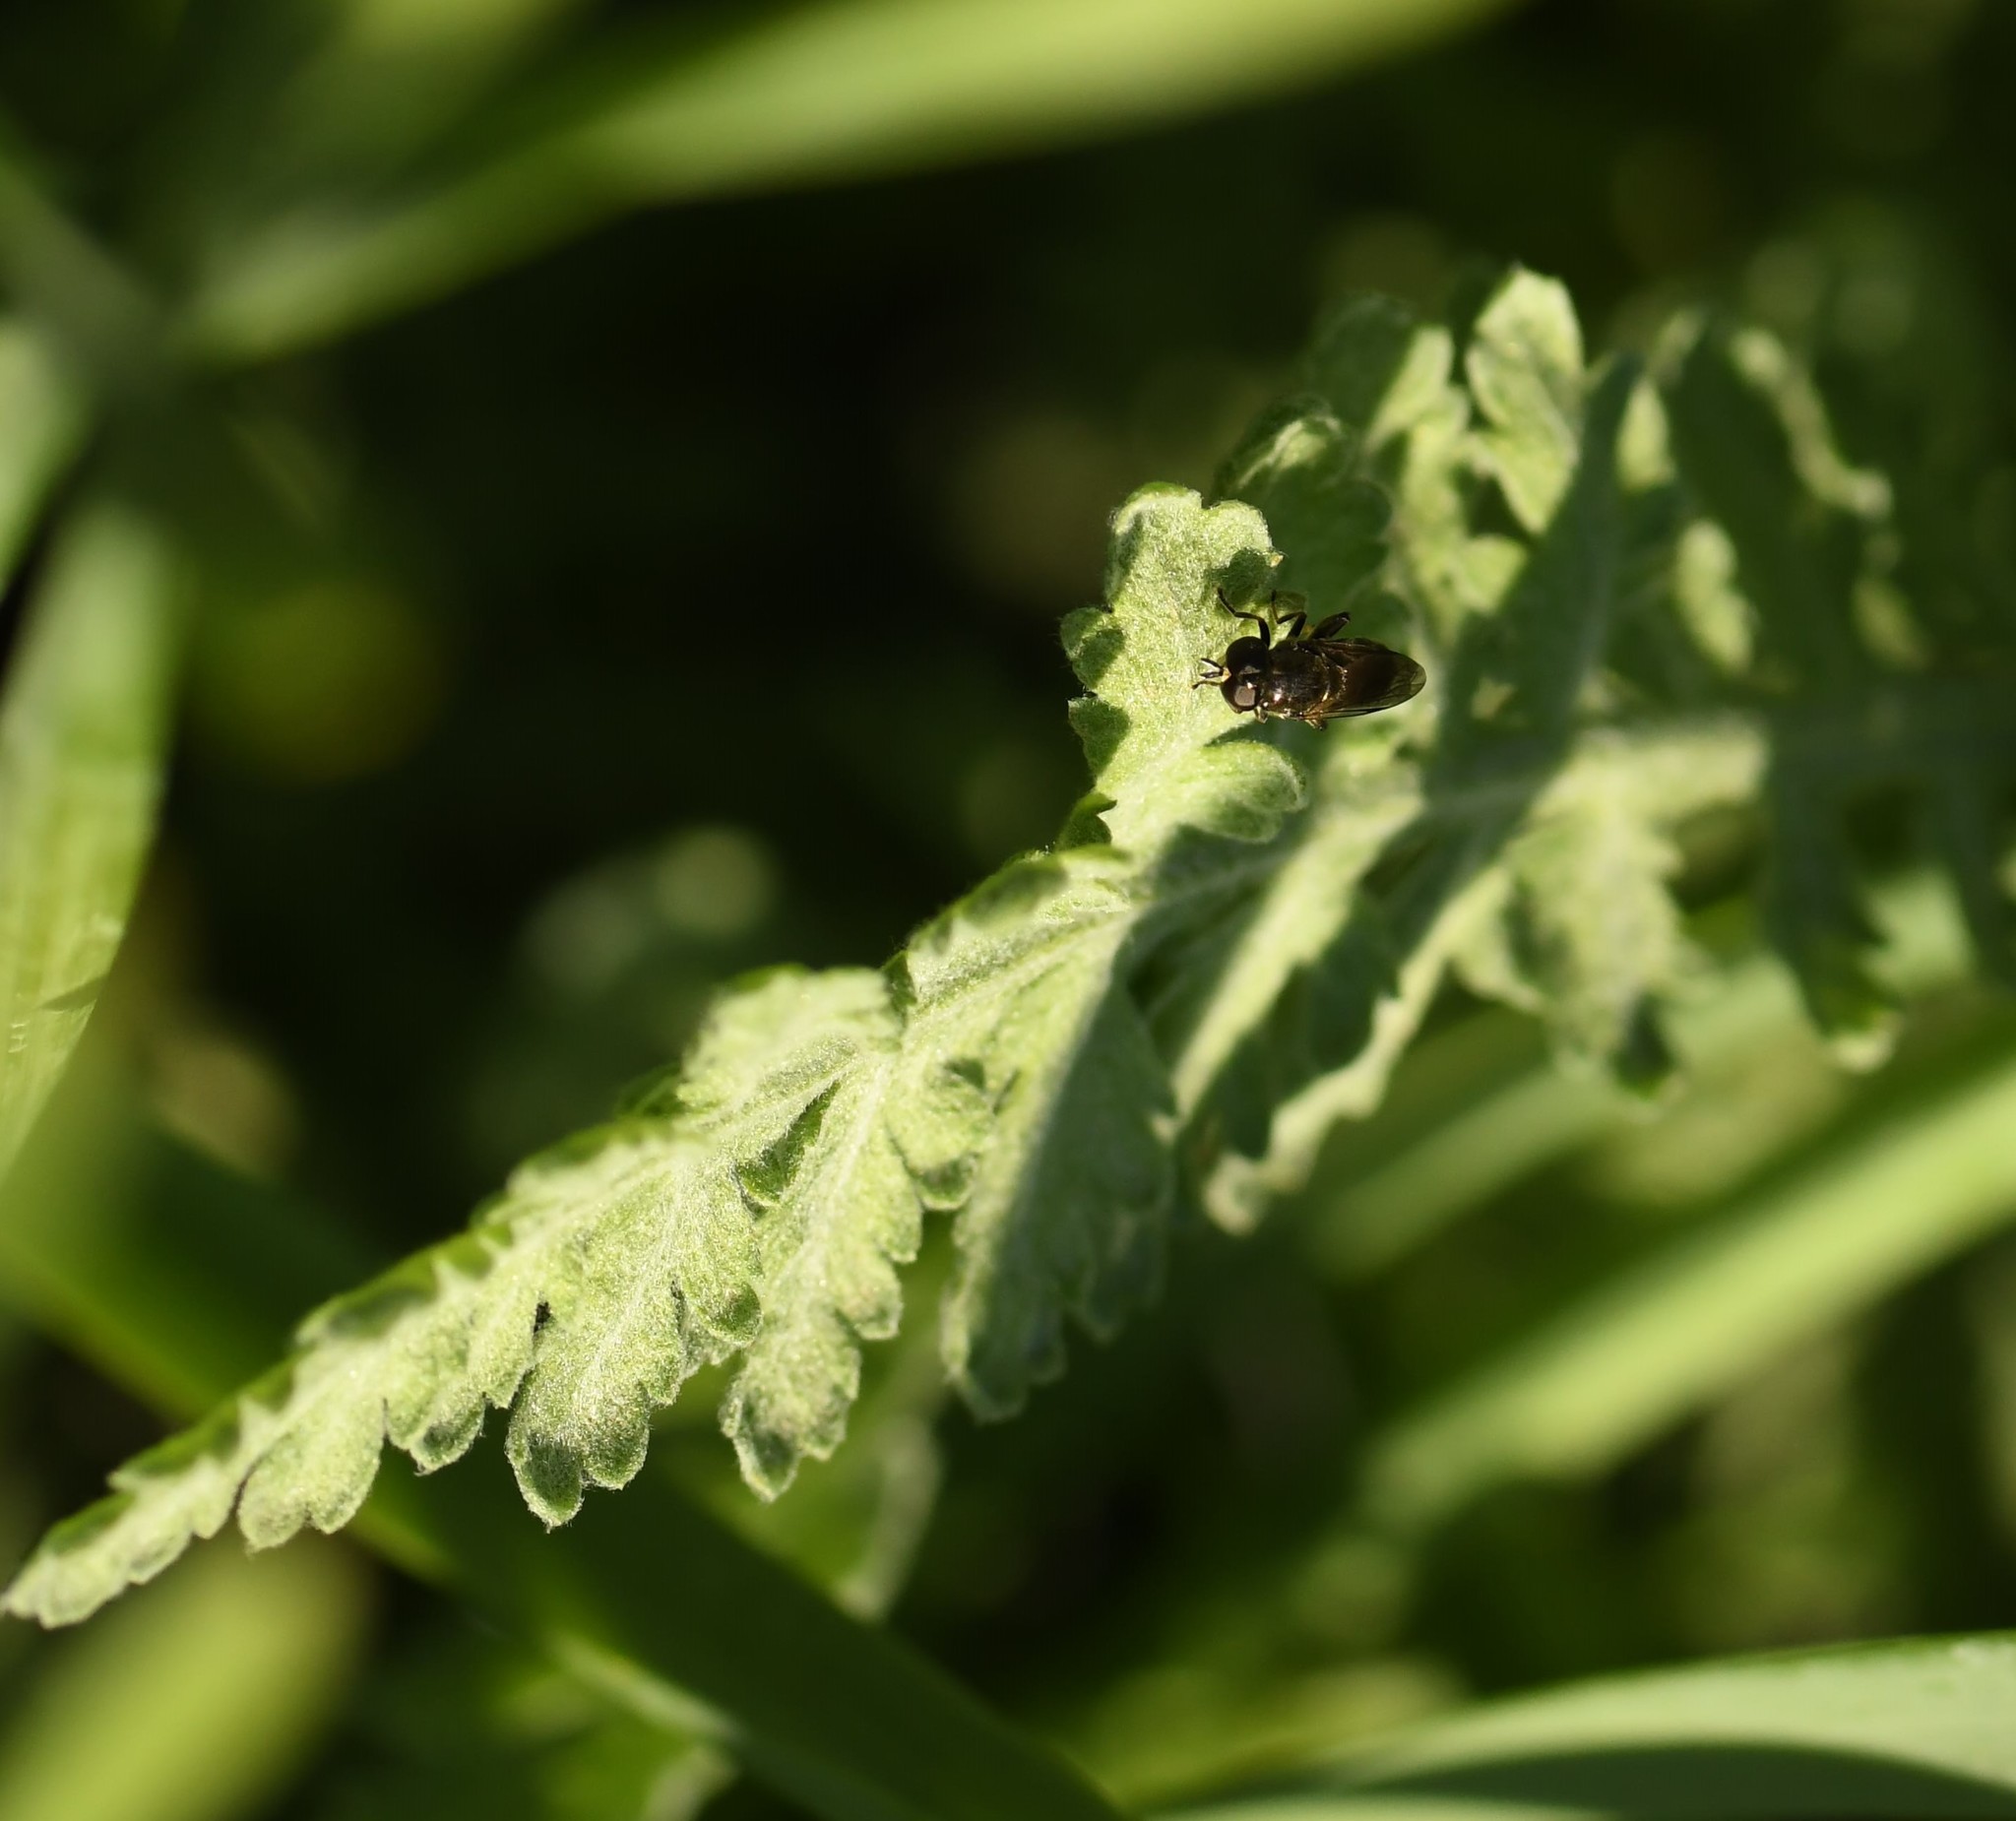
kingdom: Animalia
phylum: Arthropoda
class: Insecta
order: Diptera
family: Syrphidae
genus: Eumerus
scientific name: Eumerus
